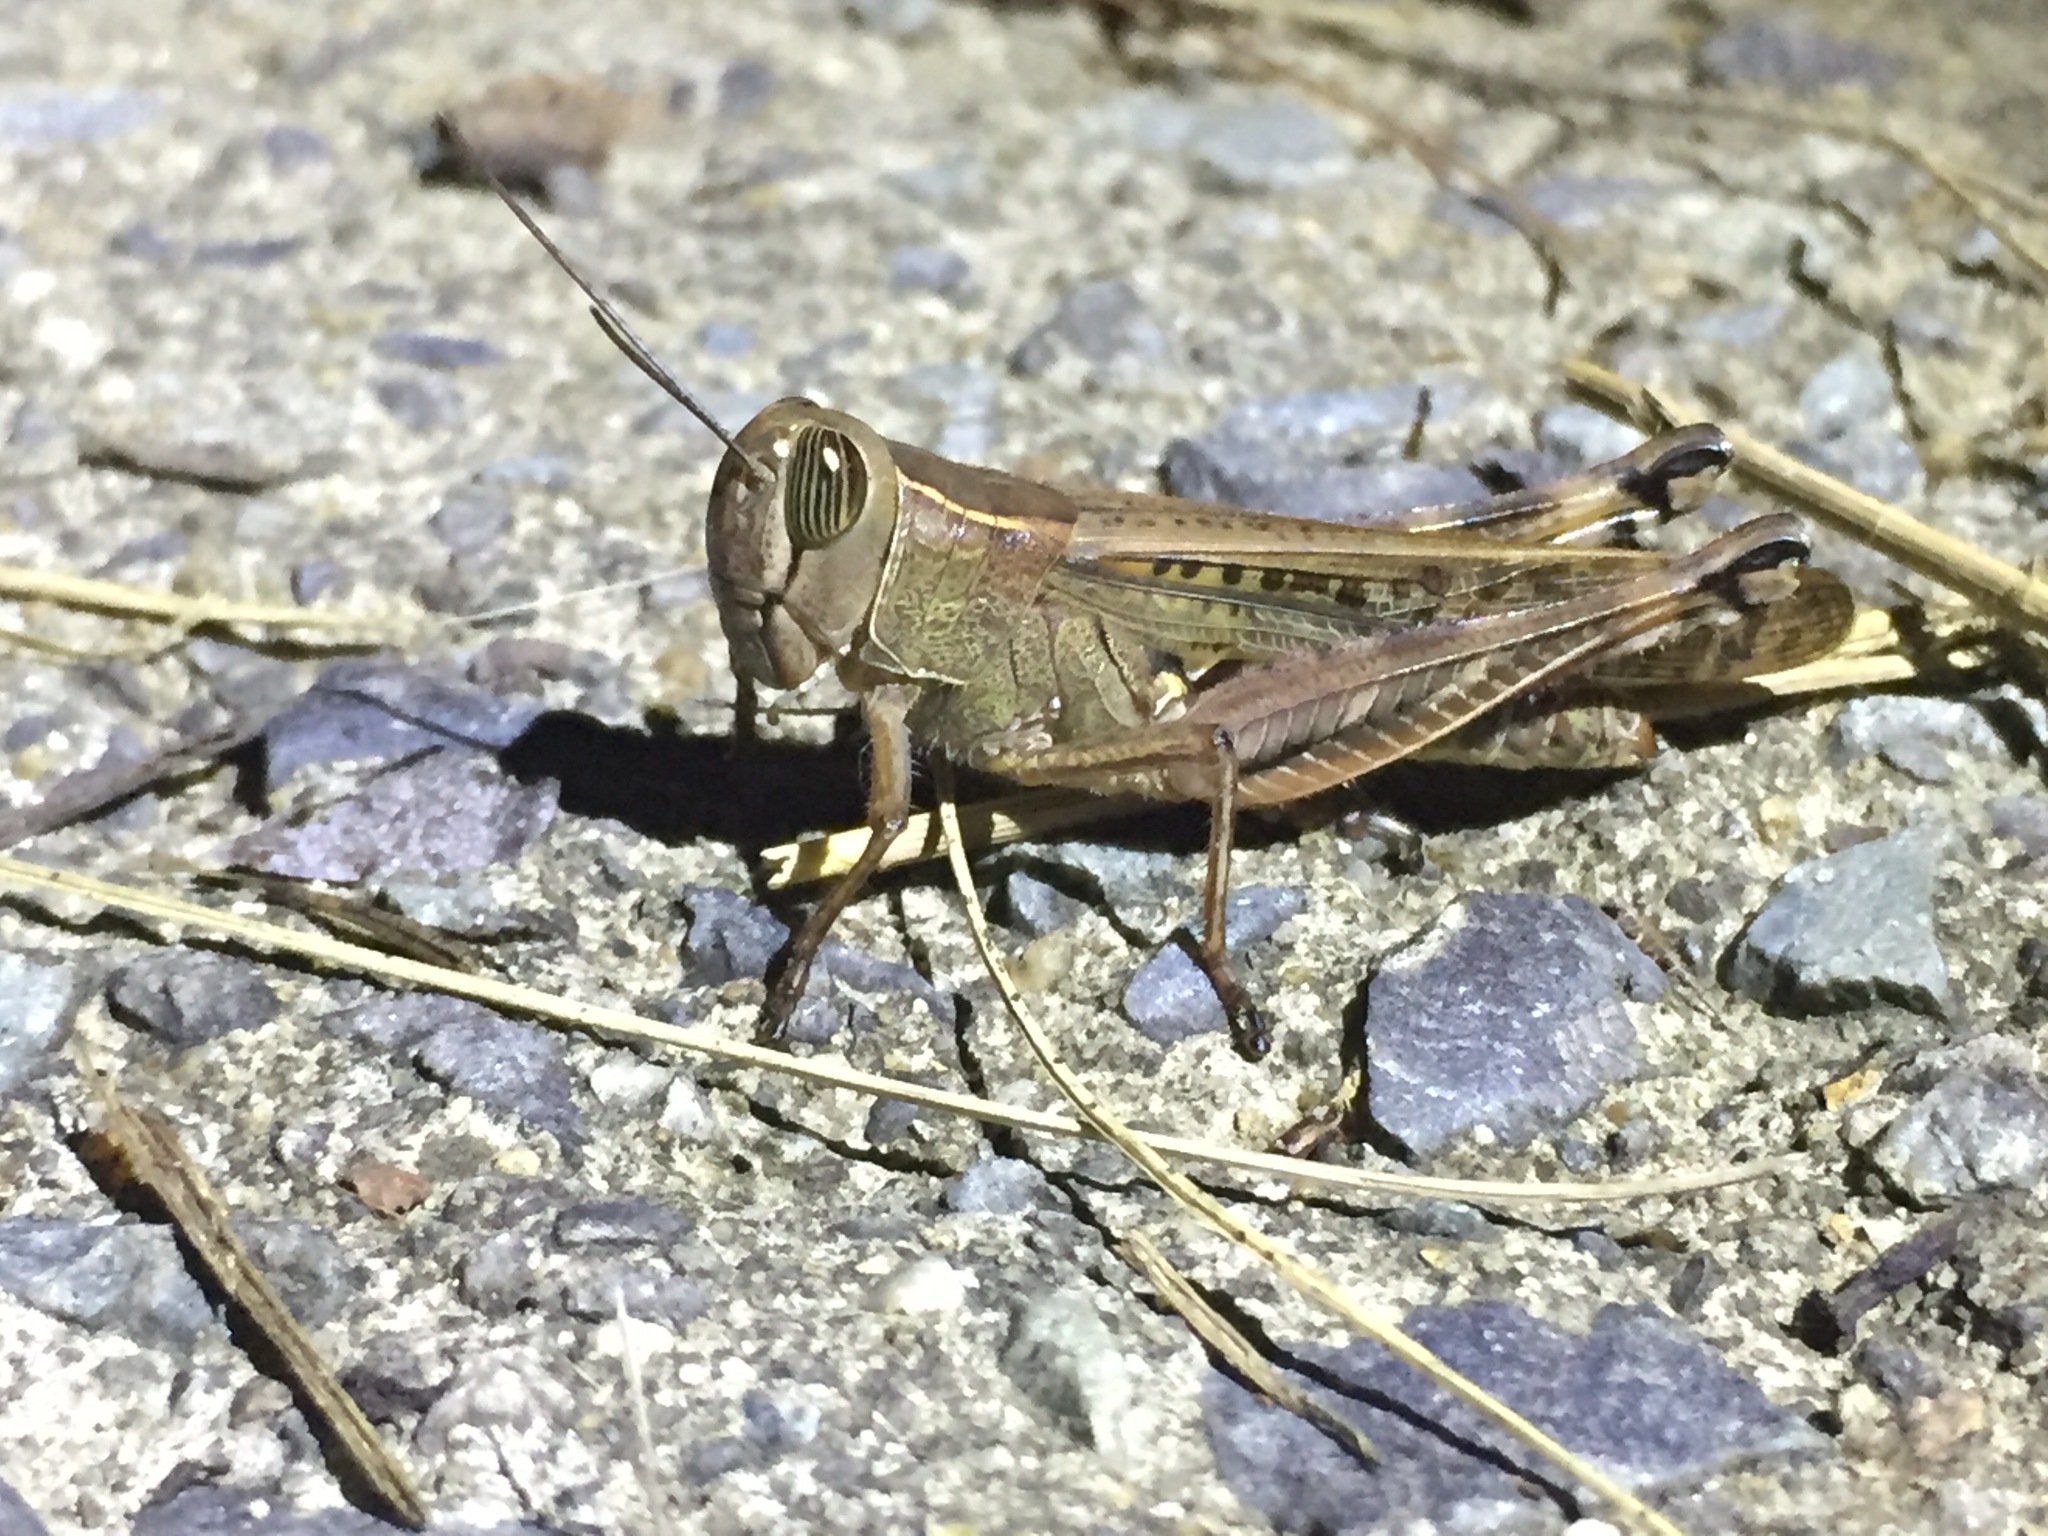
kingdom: Animalia
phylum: Arthropoda
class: Insecta
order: Orthoptera
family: Acrididae
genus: Shirakiacris
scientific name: Shirakiacris shirakii
